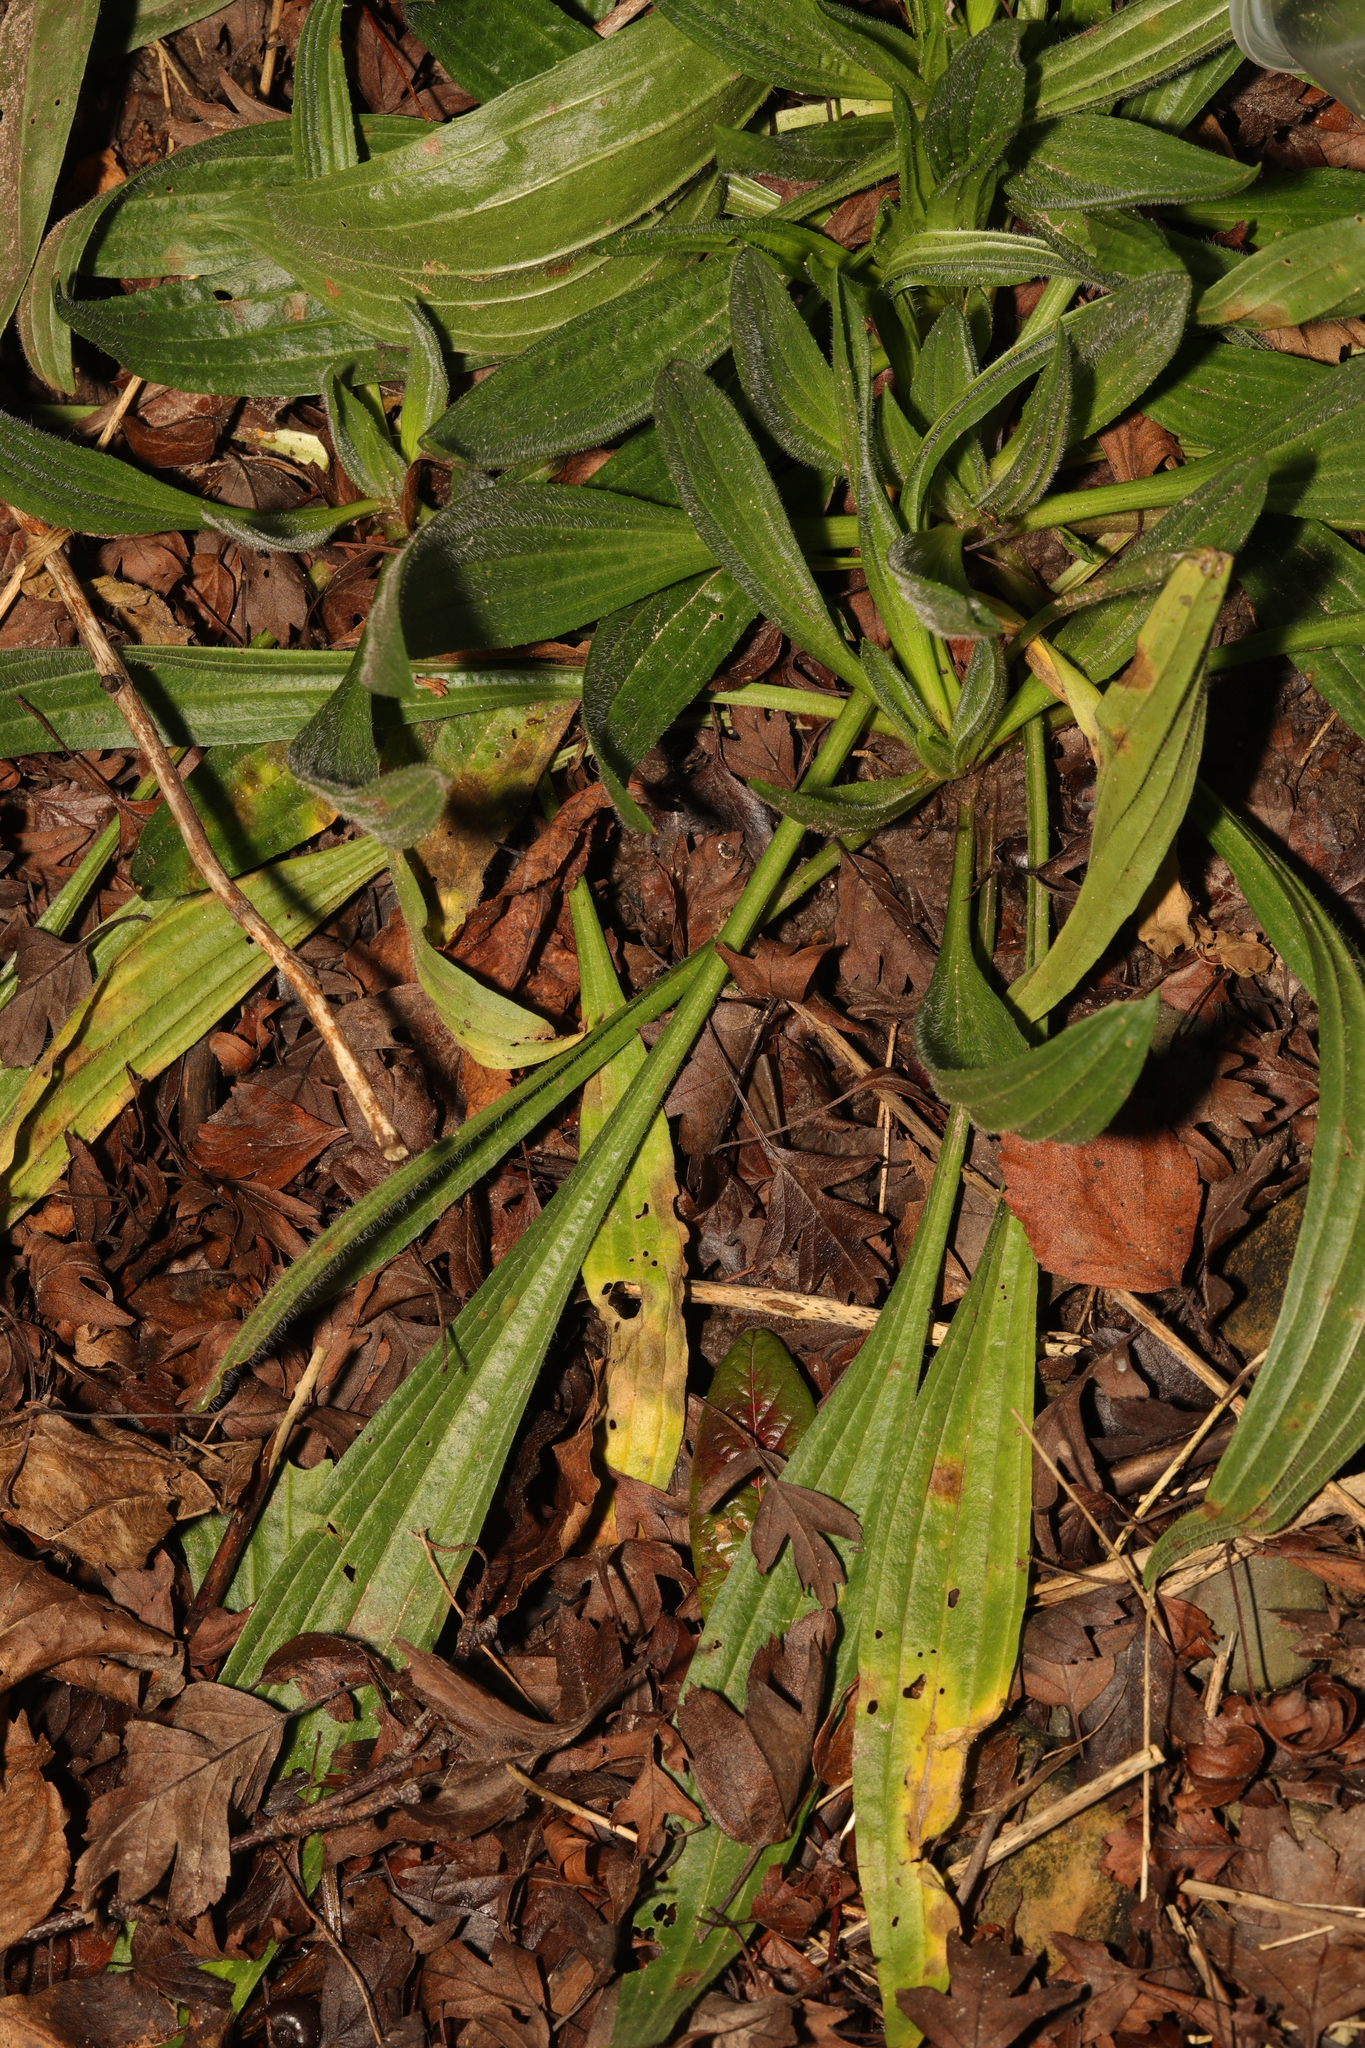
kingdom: Plantae
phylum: Tracheophyta
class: Magnoliopsida
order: Lamiales
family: Plantaginaceae
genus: Plantago
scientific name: Plantago lanceolata
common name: Ribwort plantain
